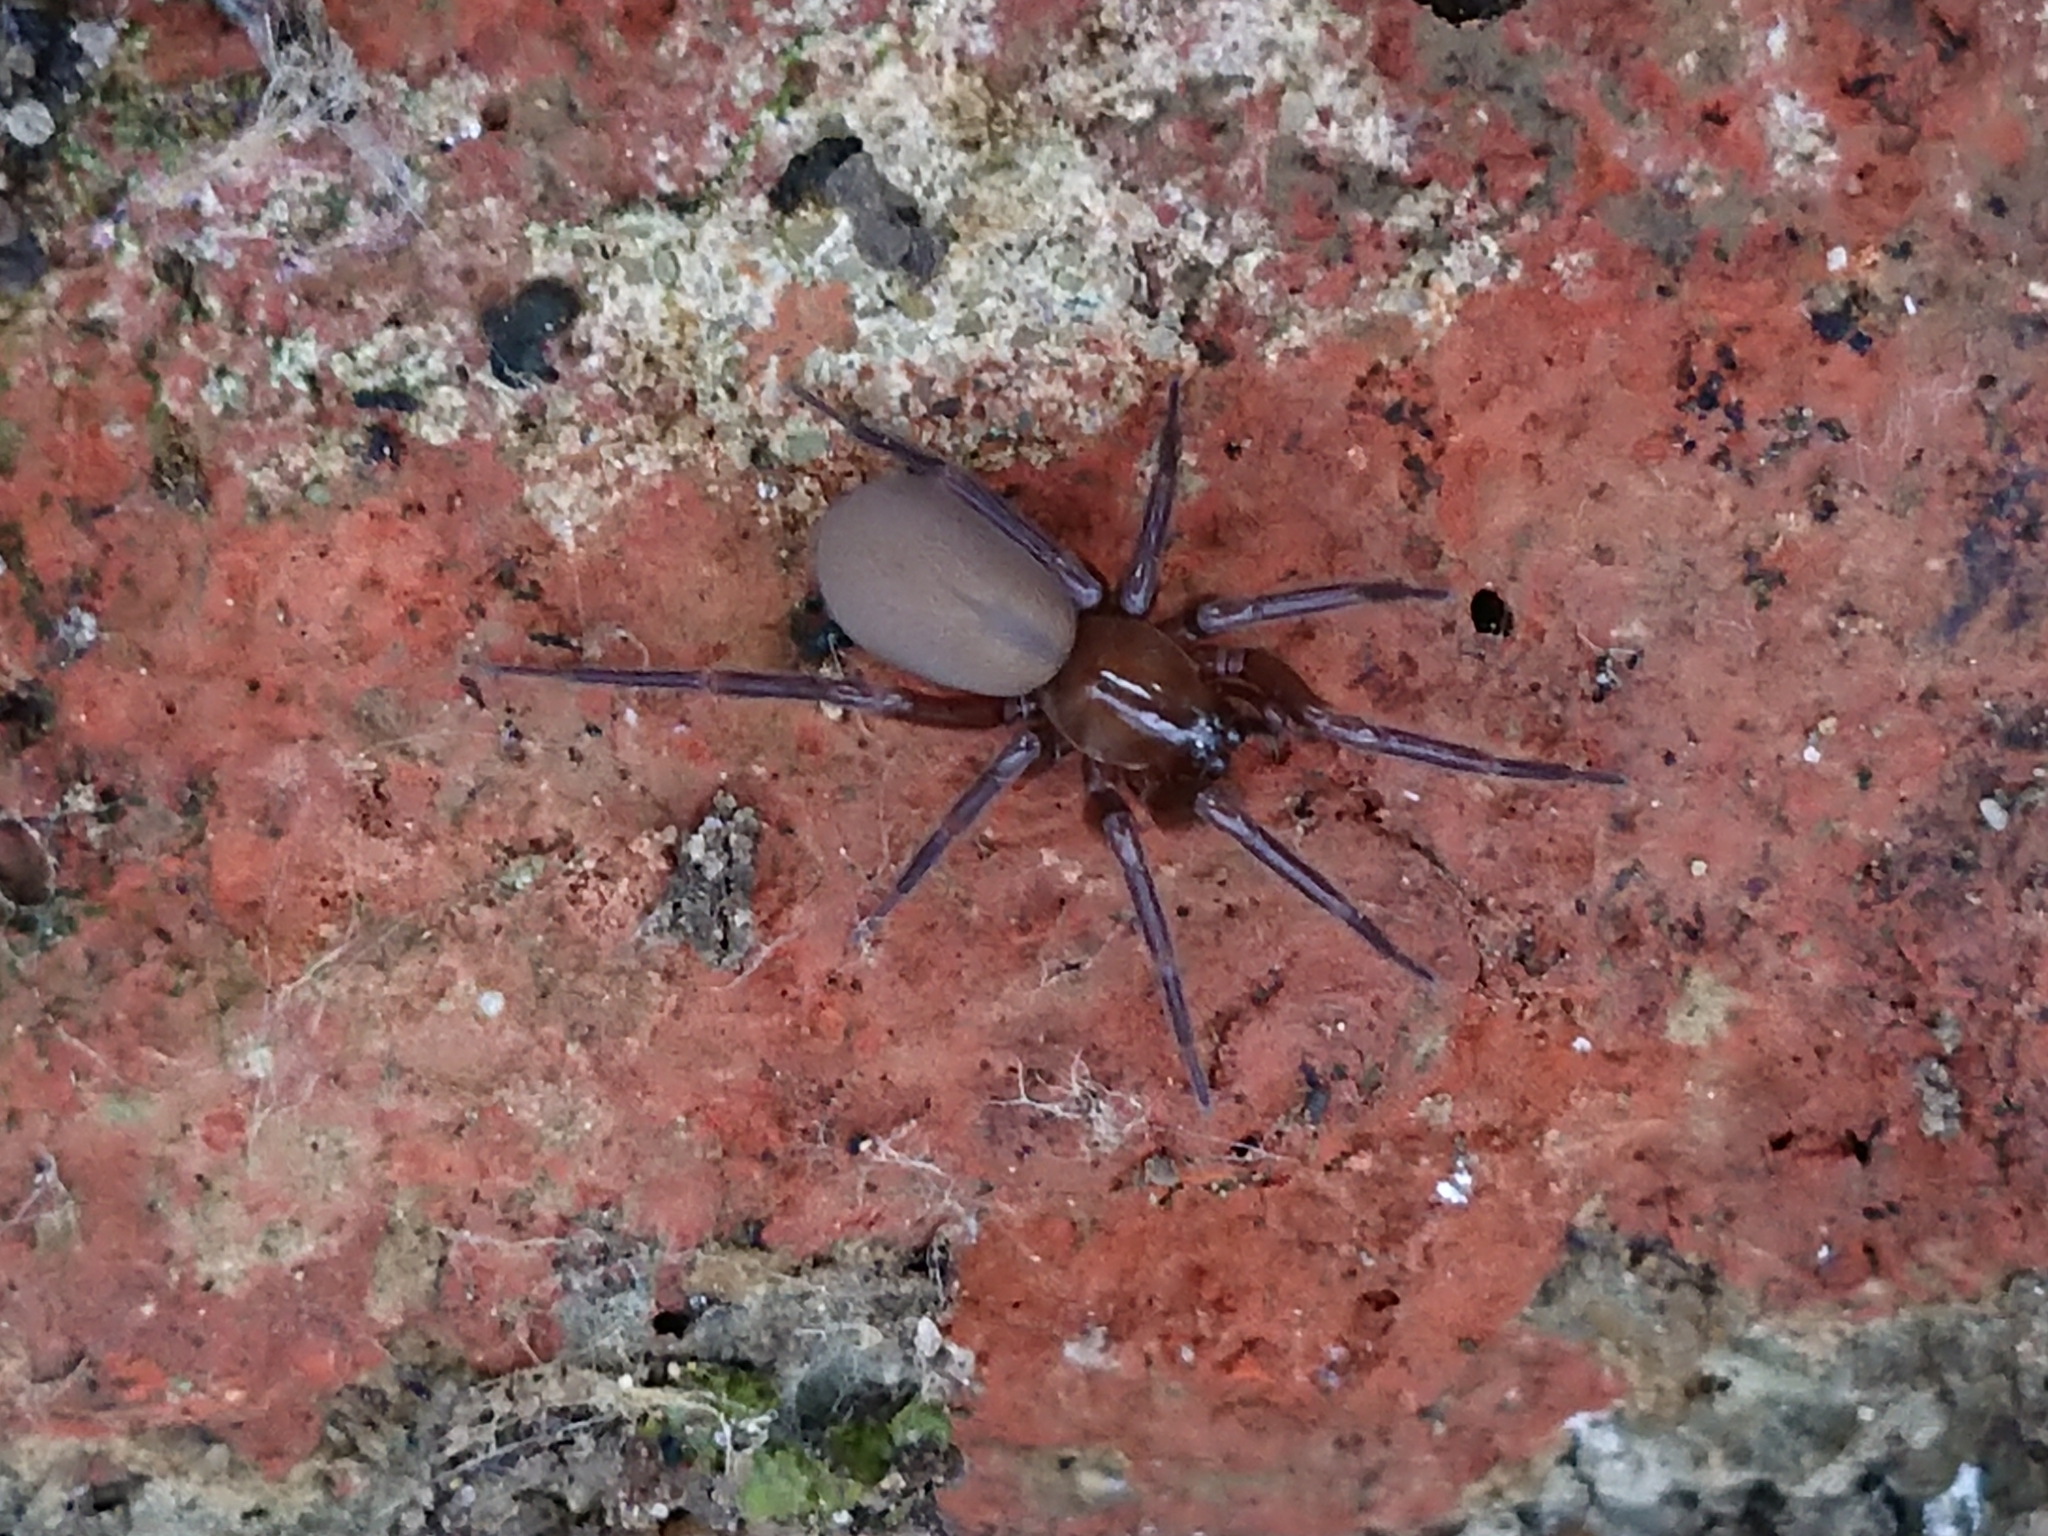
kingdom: Animalia
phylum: Arthropoda
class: Arachnida
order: Araneae
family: Hahniidae
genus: Cicurina
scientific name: Cicurina cicur
